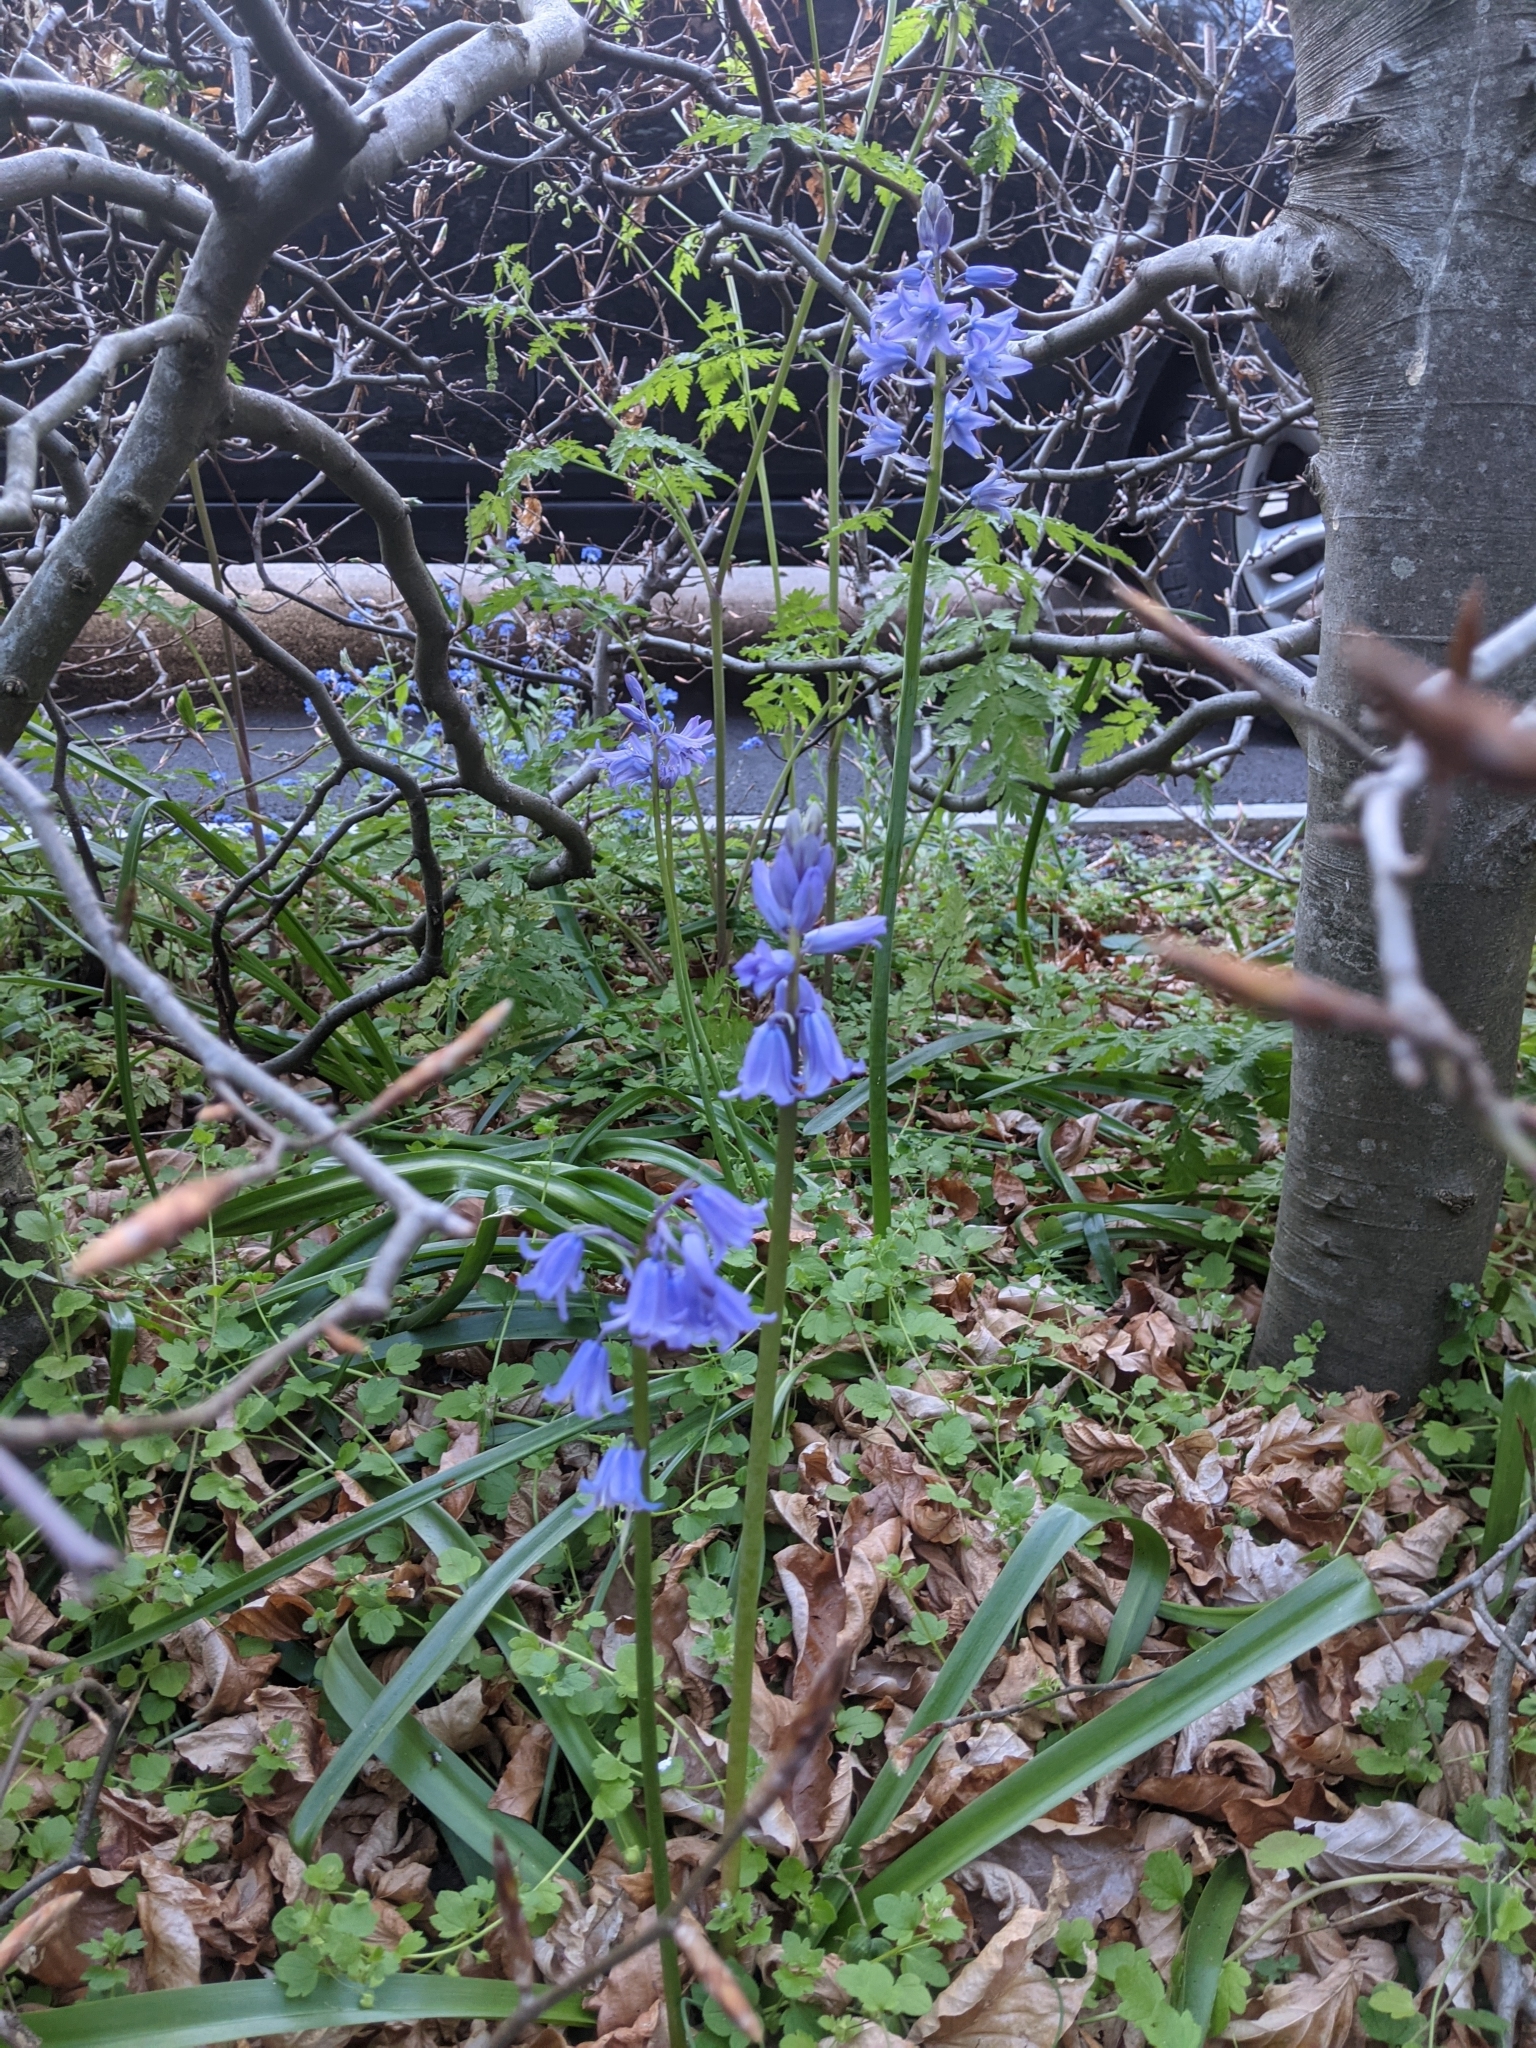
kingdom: Plantae
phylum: Tracheophyta
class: Liliopsida
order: Asparagales
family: Asparagaceae
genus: Hyacinthoides
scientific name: Hyacinthoides hispanica
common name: Spanish bluebell
